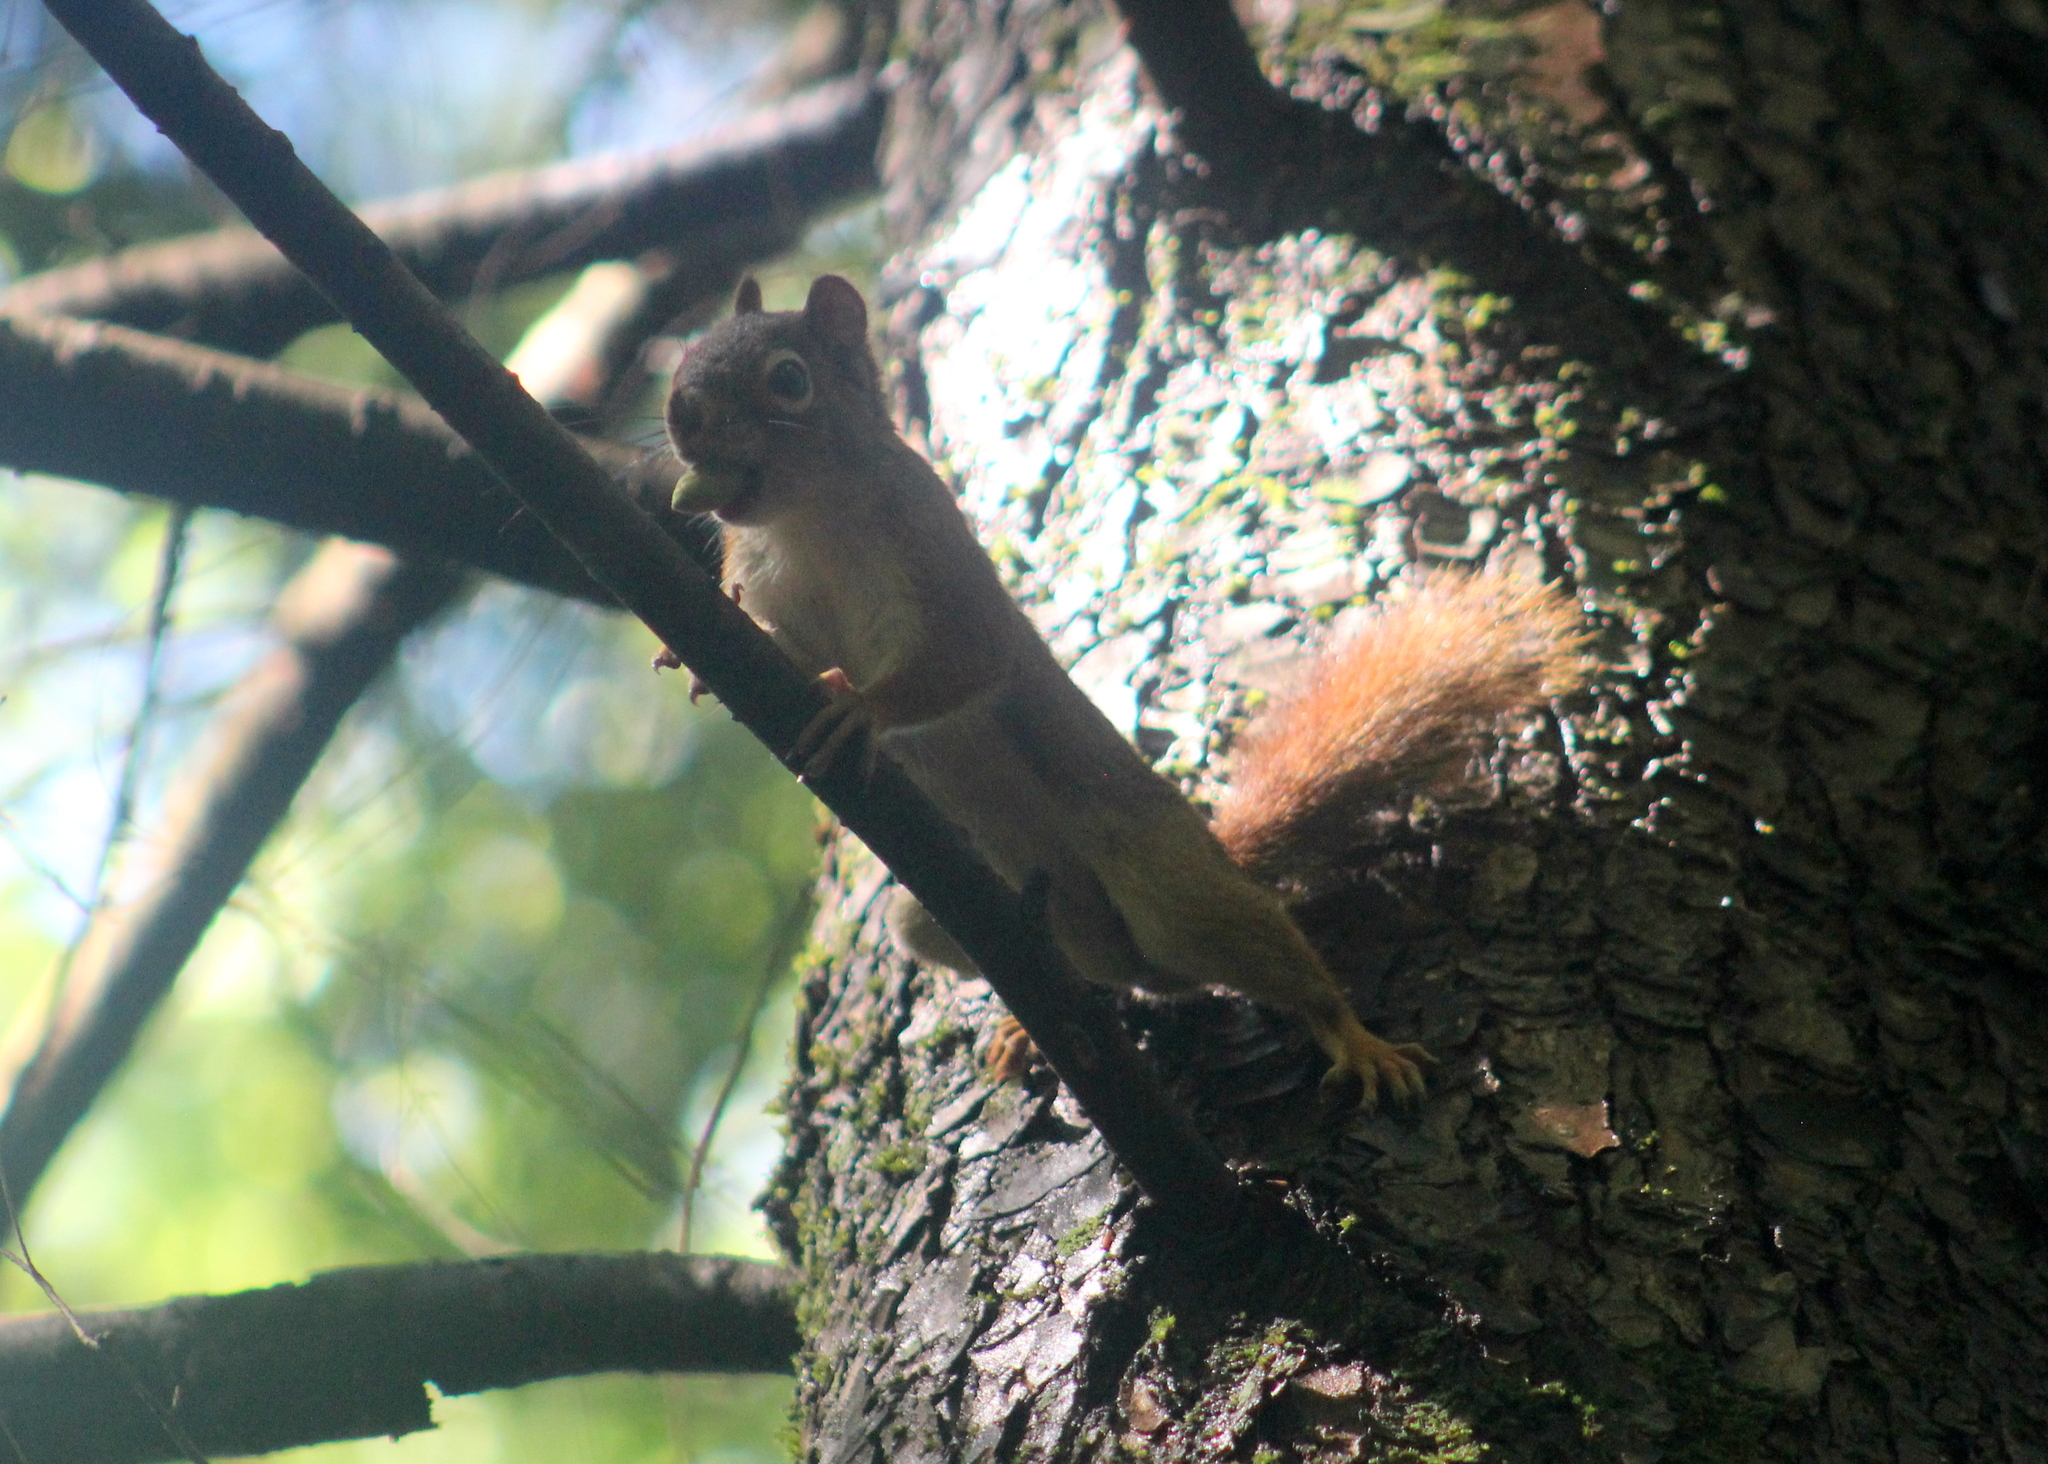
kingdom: Animalia
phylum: Chordata
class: Mammalia
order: Rodentia
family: Sciuridae
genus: Tamiasciurus
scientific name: Tamiasciurus hudsonicus
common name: Red squirrel
